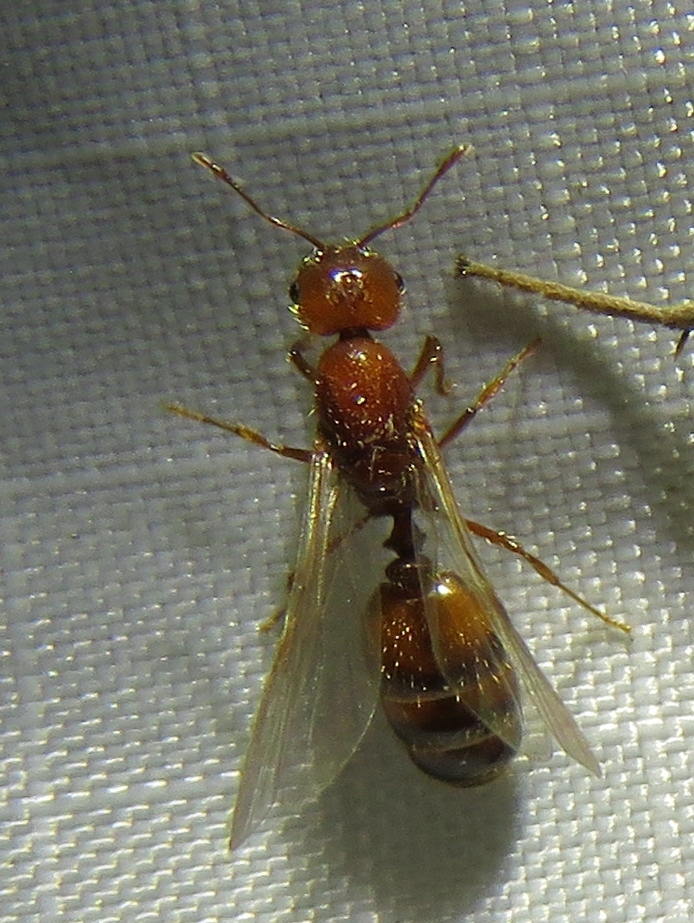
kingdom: Animalia
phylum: Arthropoda
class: Insecta
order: Hymenoptera
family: Formicidae
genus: Solenopsis
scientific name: Solenopsis geminata
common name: Tropical fire ant
